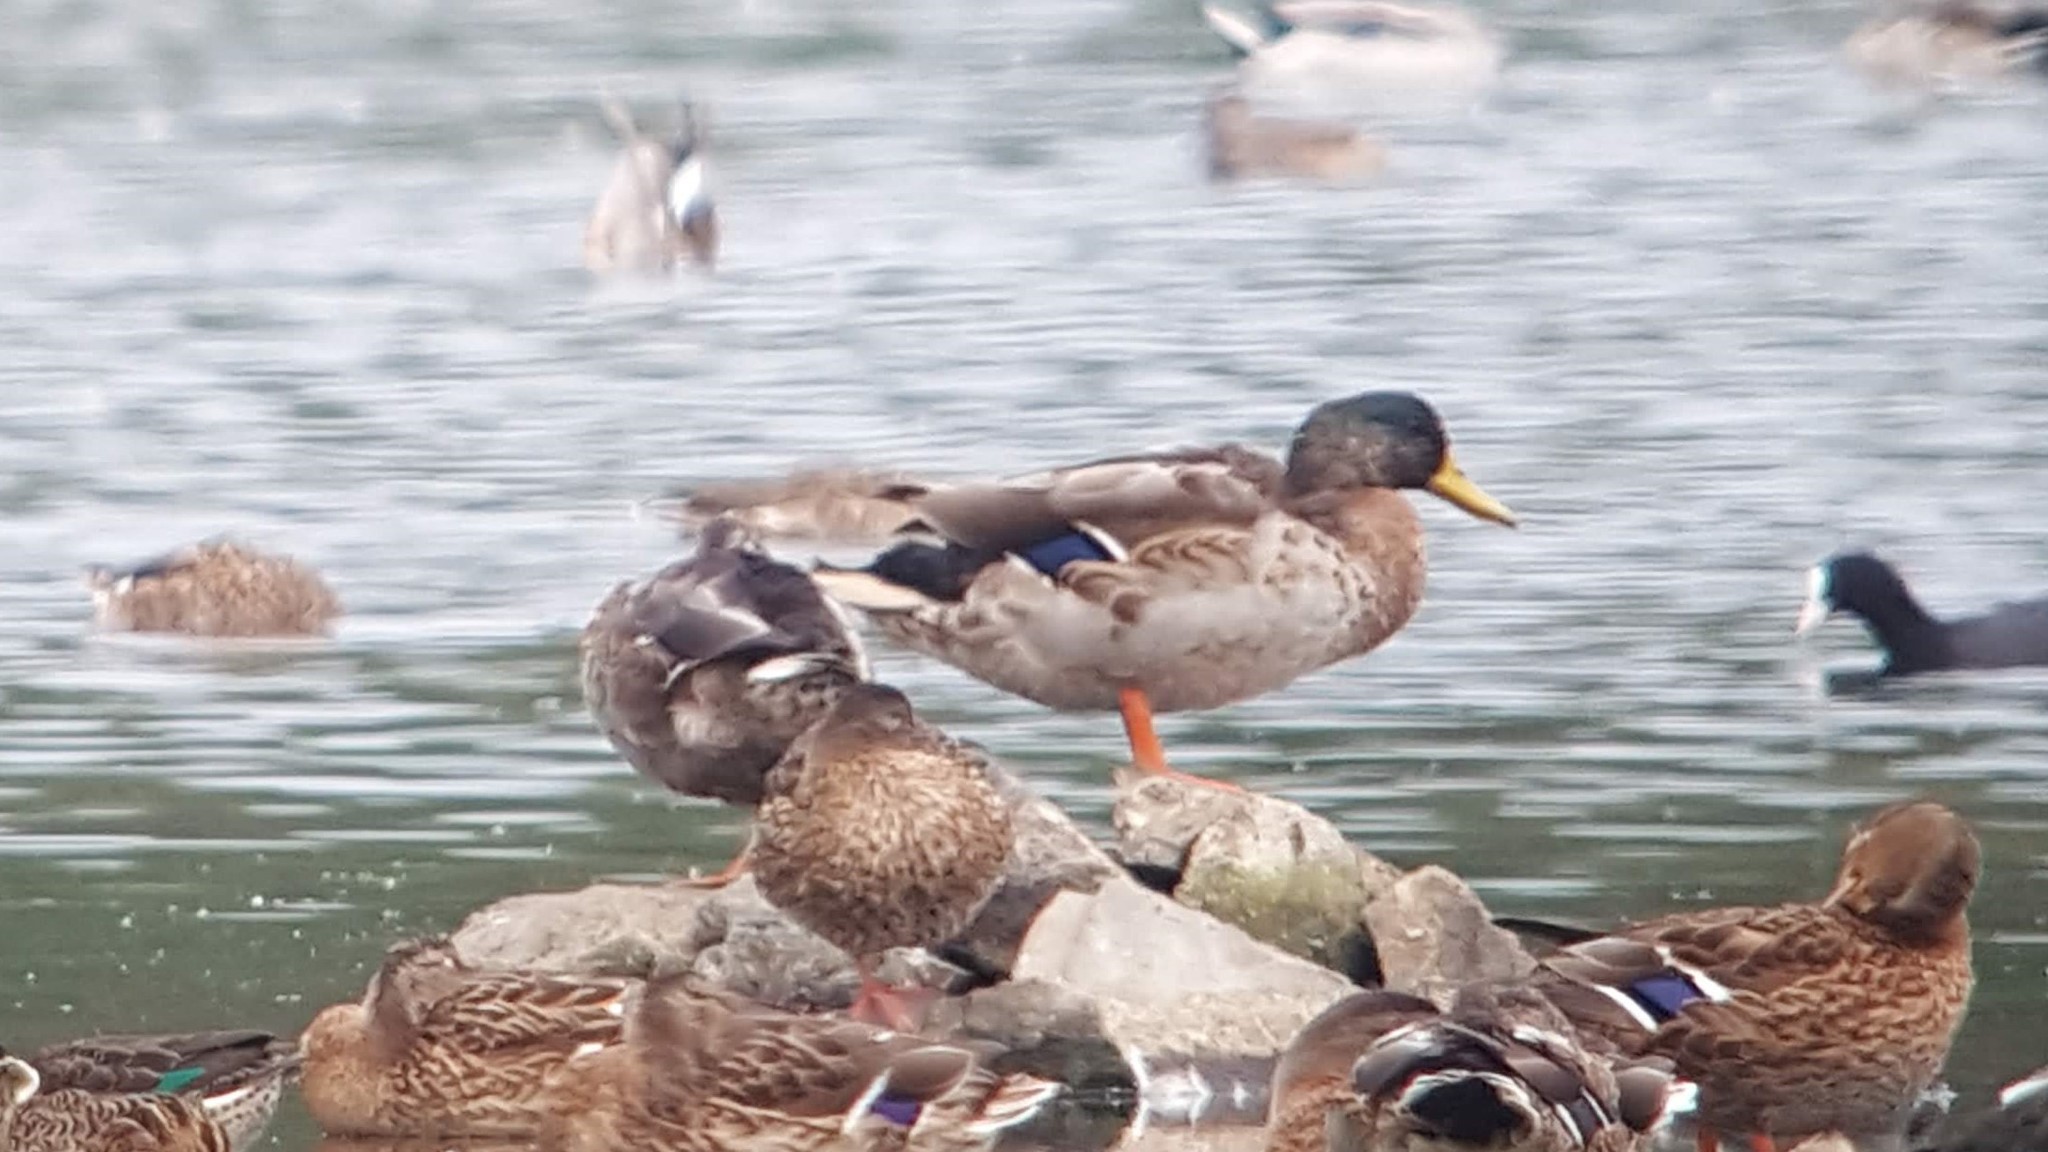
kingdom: Animalia
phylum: Chordata
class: Aves
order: Anseriformes
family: Anatidae
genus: Anas
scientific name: Anas platyrhynchos
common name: Mallard
